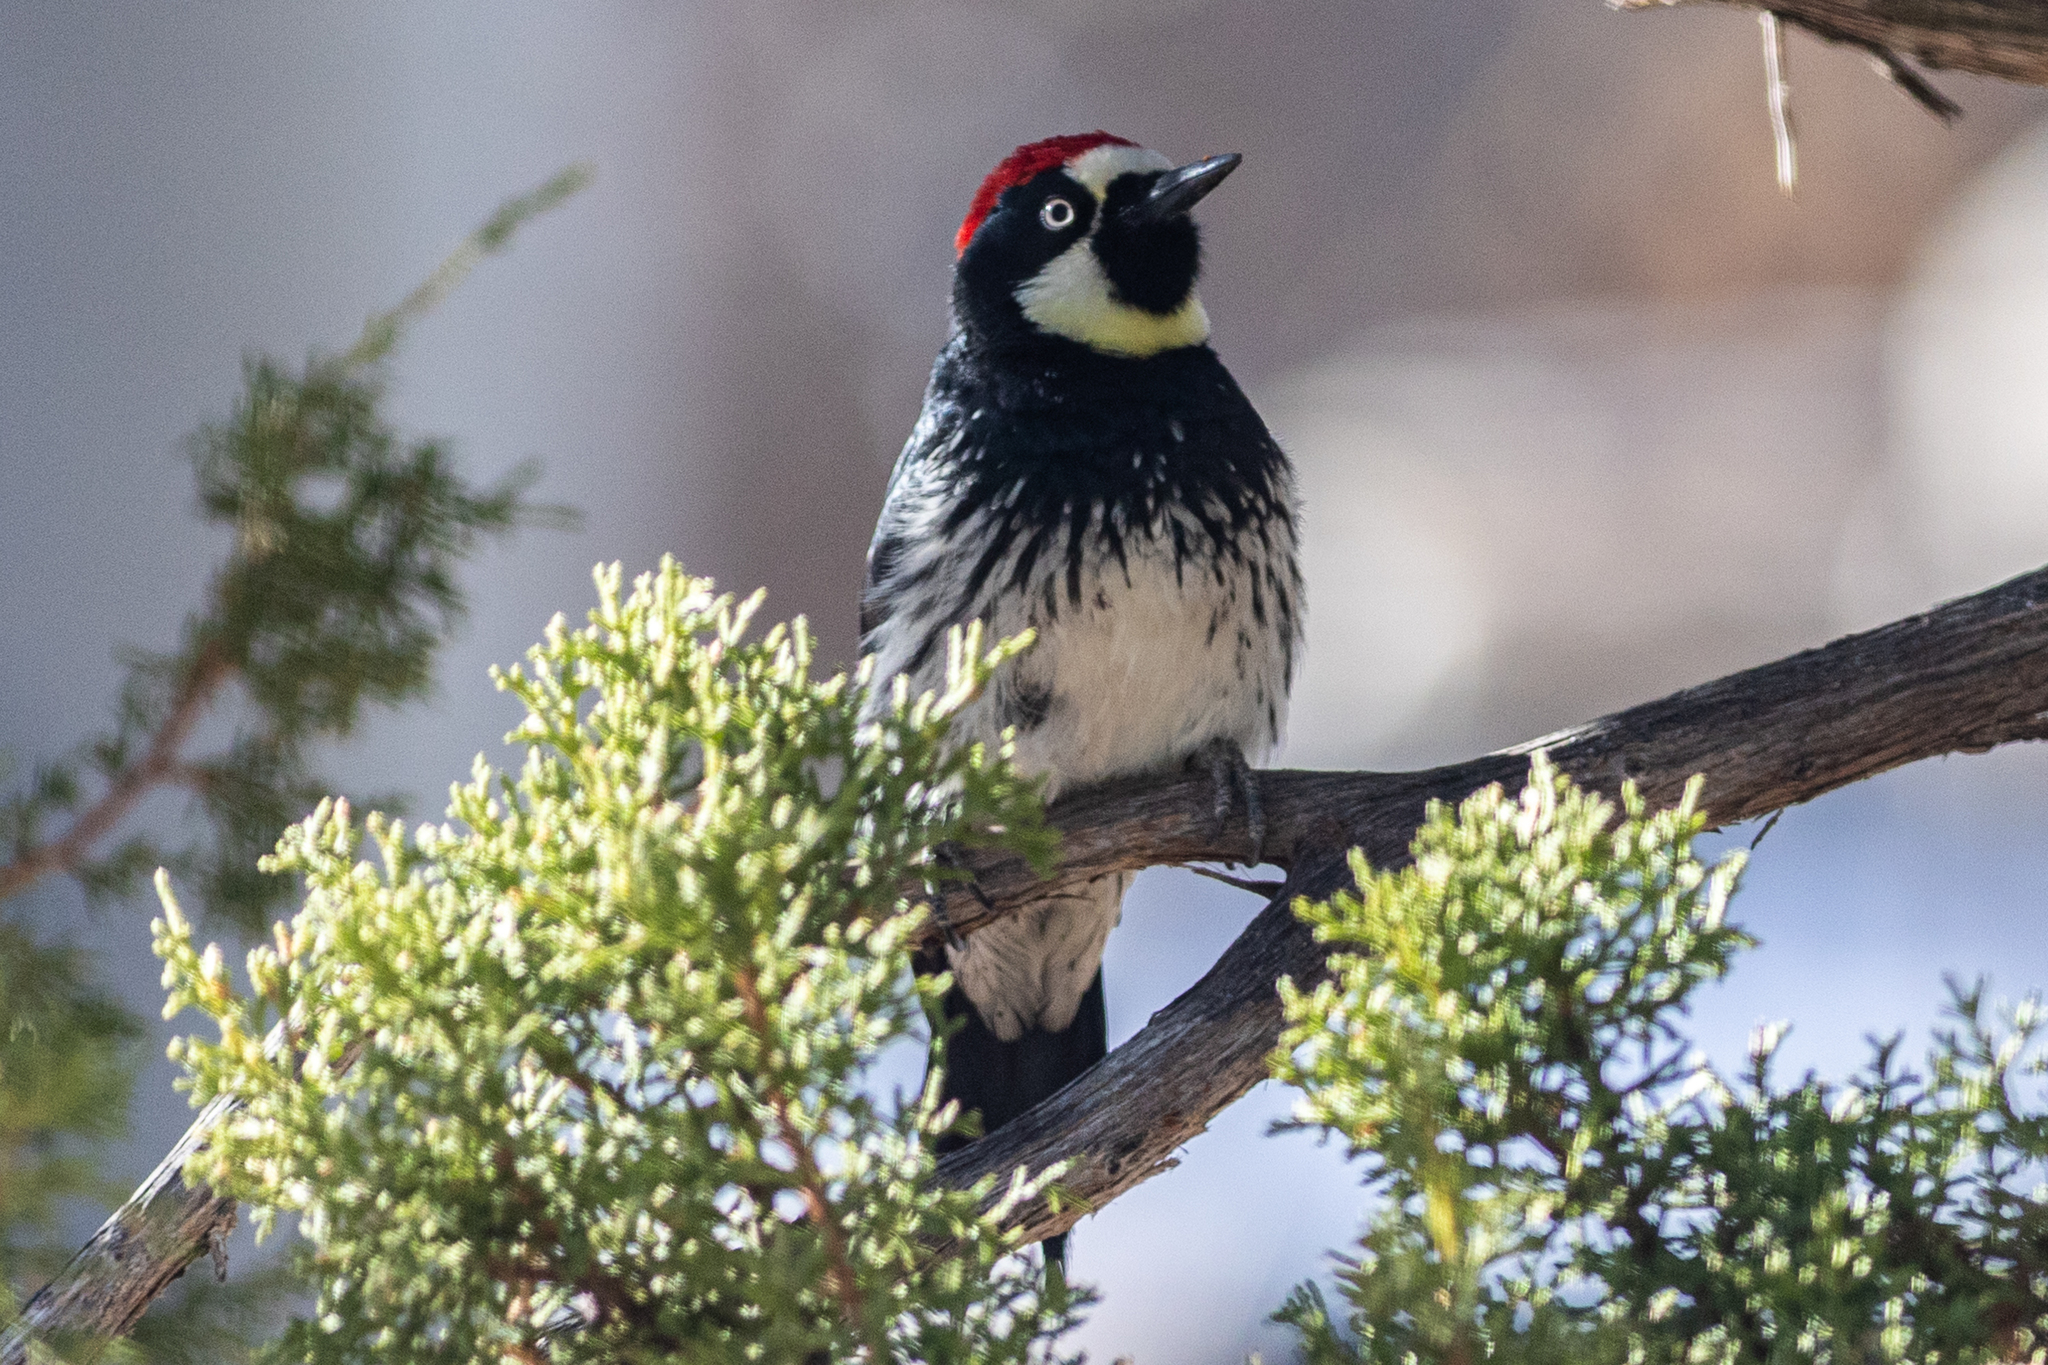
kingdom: Animalia
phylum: Chordata
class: Aves
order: Piciformes
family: Picidae
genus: Melanerpes
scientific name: Melanerpes formicivorus
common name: Acorn woodpecker
